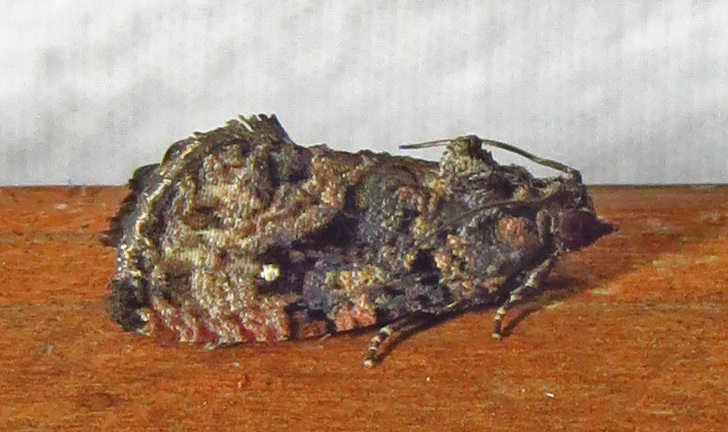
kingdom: Animalia
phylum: Arthropoda
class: Insecta
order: Lepidoptera
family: Tortricidae
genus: Gymnandrosoma
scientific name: Gymnandrosoma punctidiscanum
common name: Dotted ecdytolopha moth
